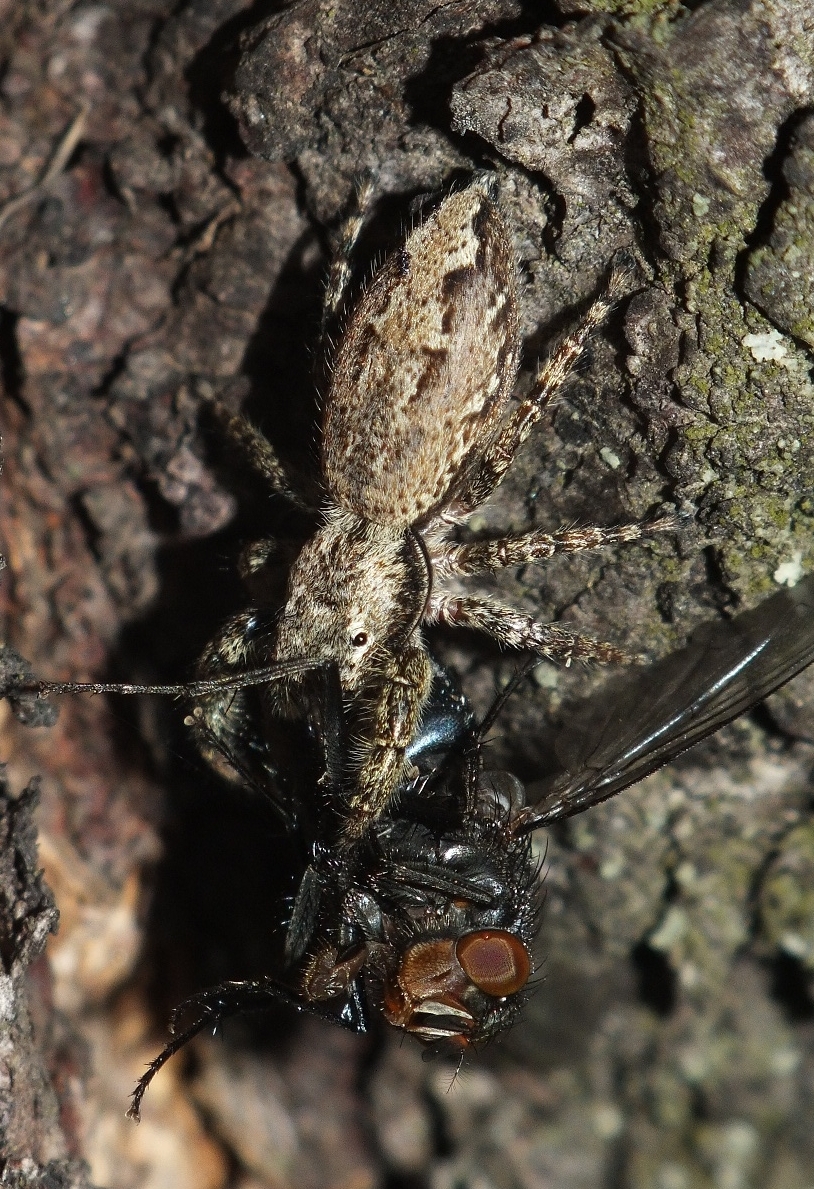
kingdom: Animalia
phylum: Arthropoda
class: Arachnida
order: Araneae
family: Salticidae
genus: Marpissa
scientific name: Marpissa muscosa
